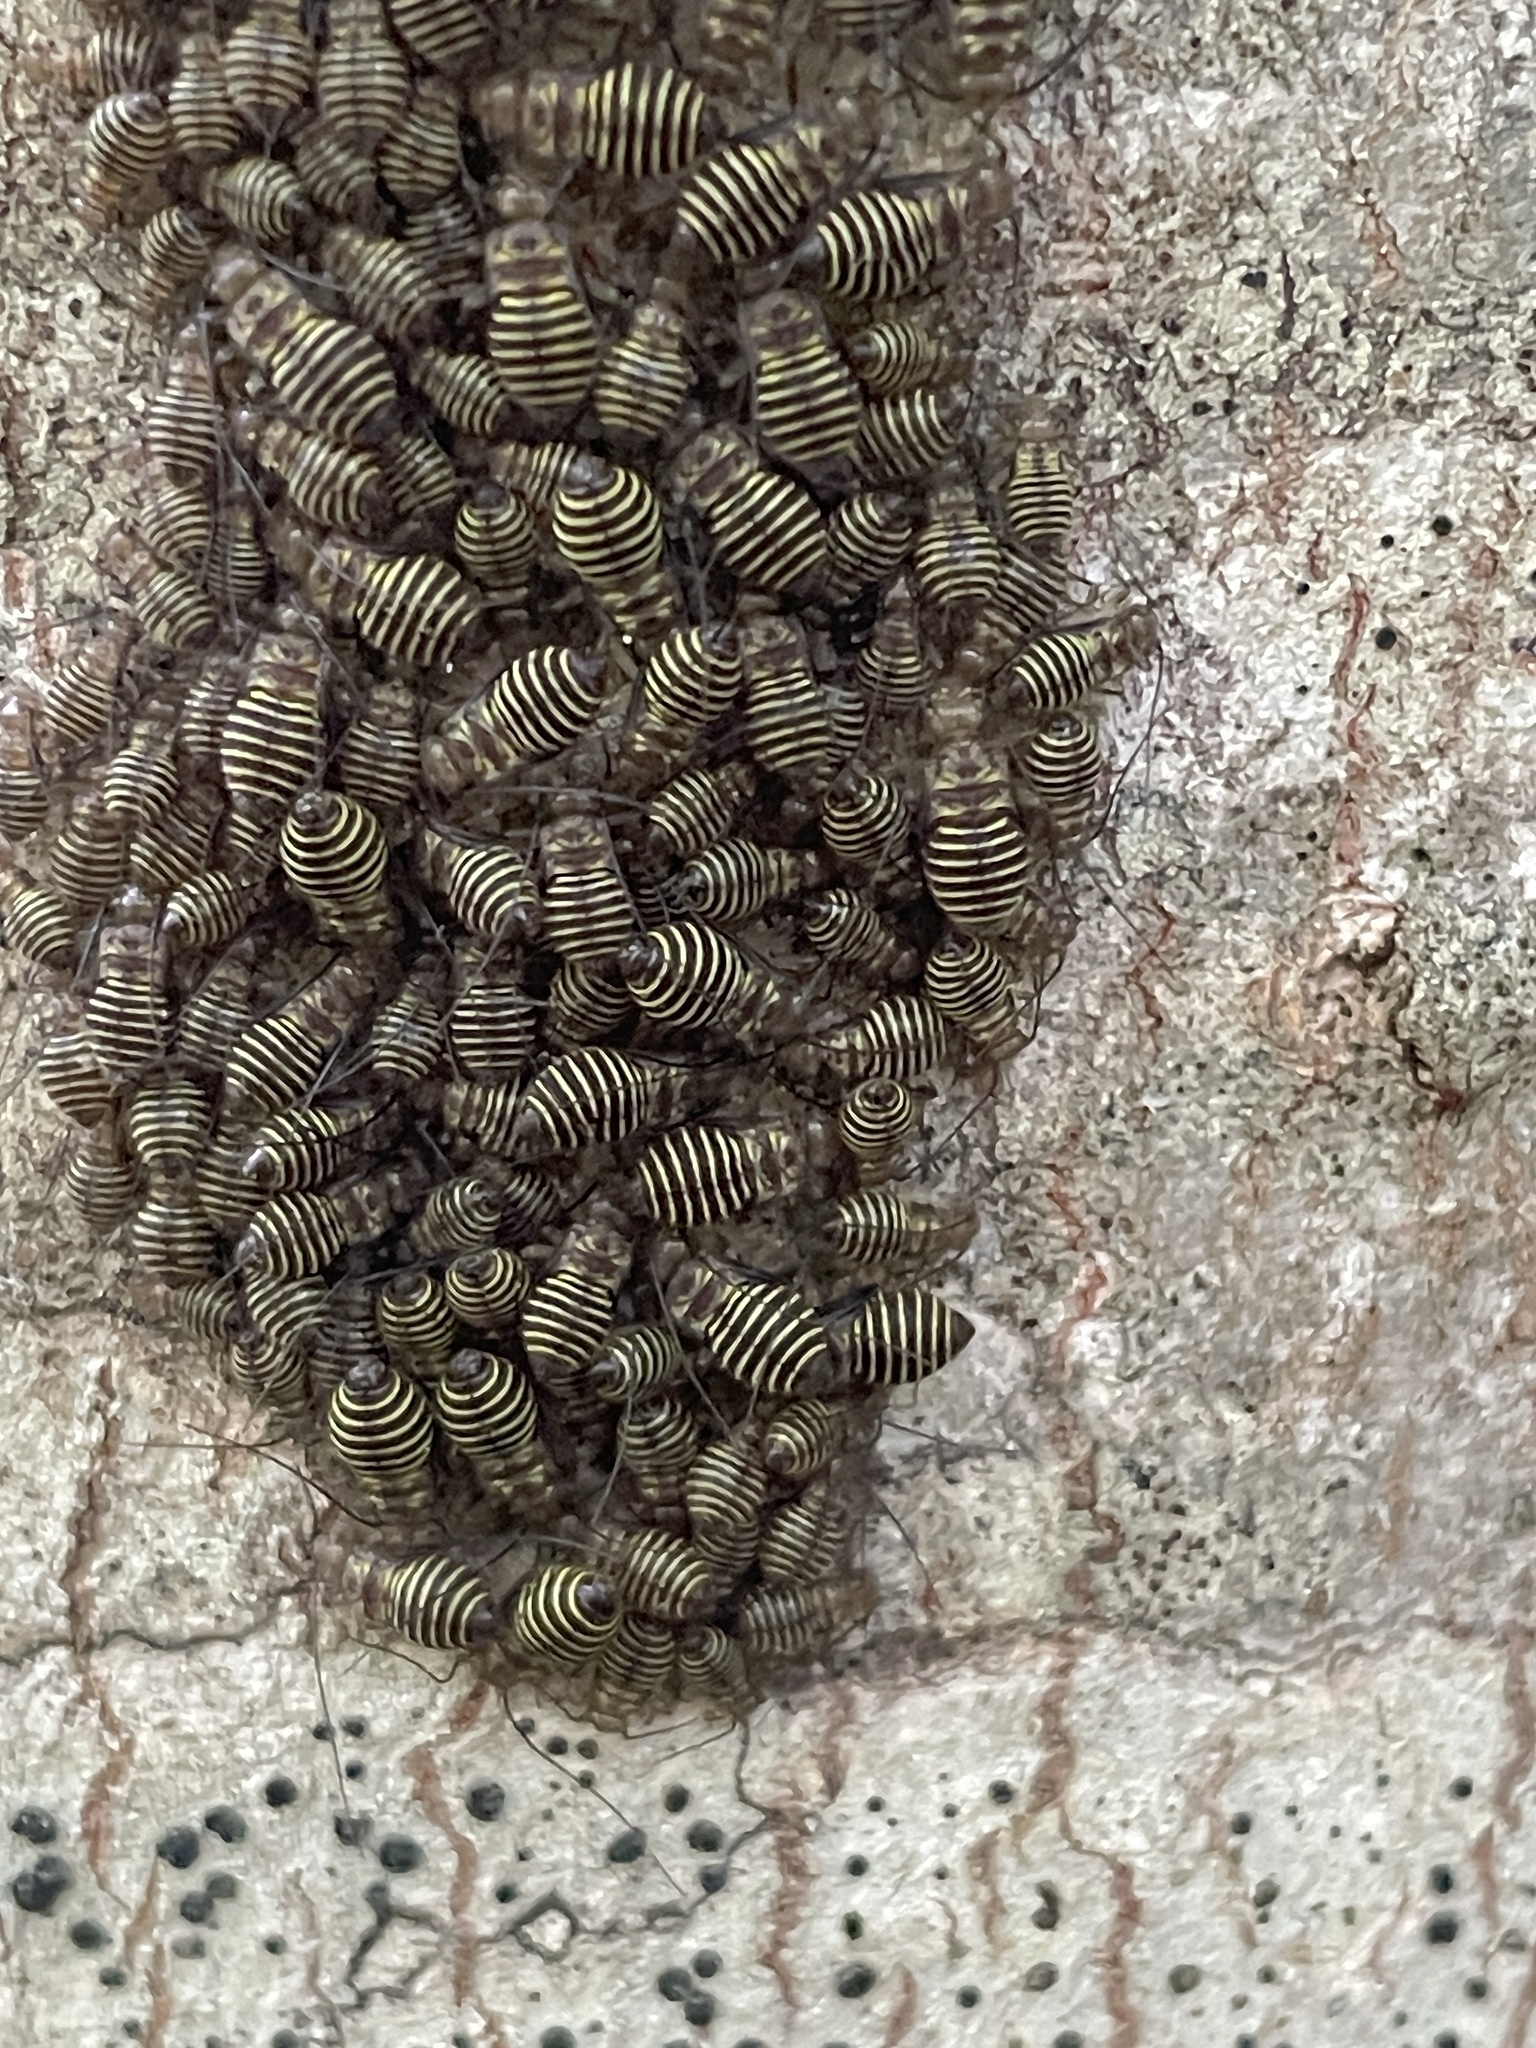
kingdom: Animalia
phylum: Arthropoda
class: Insecta
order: Psocodea
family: Psocidae
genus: Cerastipsocus
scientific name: Cerastipsocus venosus
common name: Tree cattle
